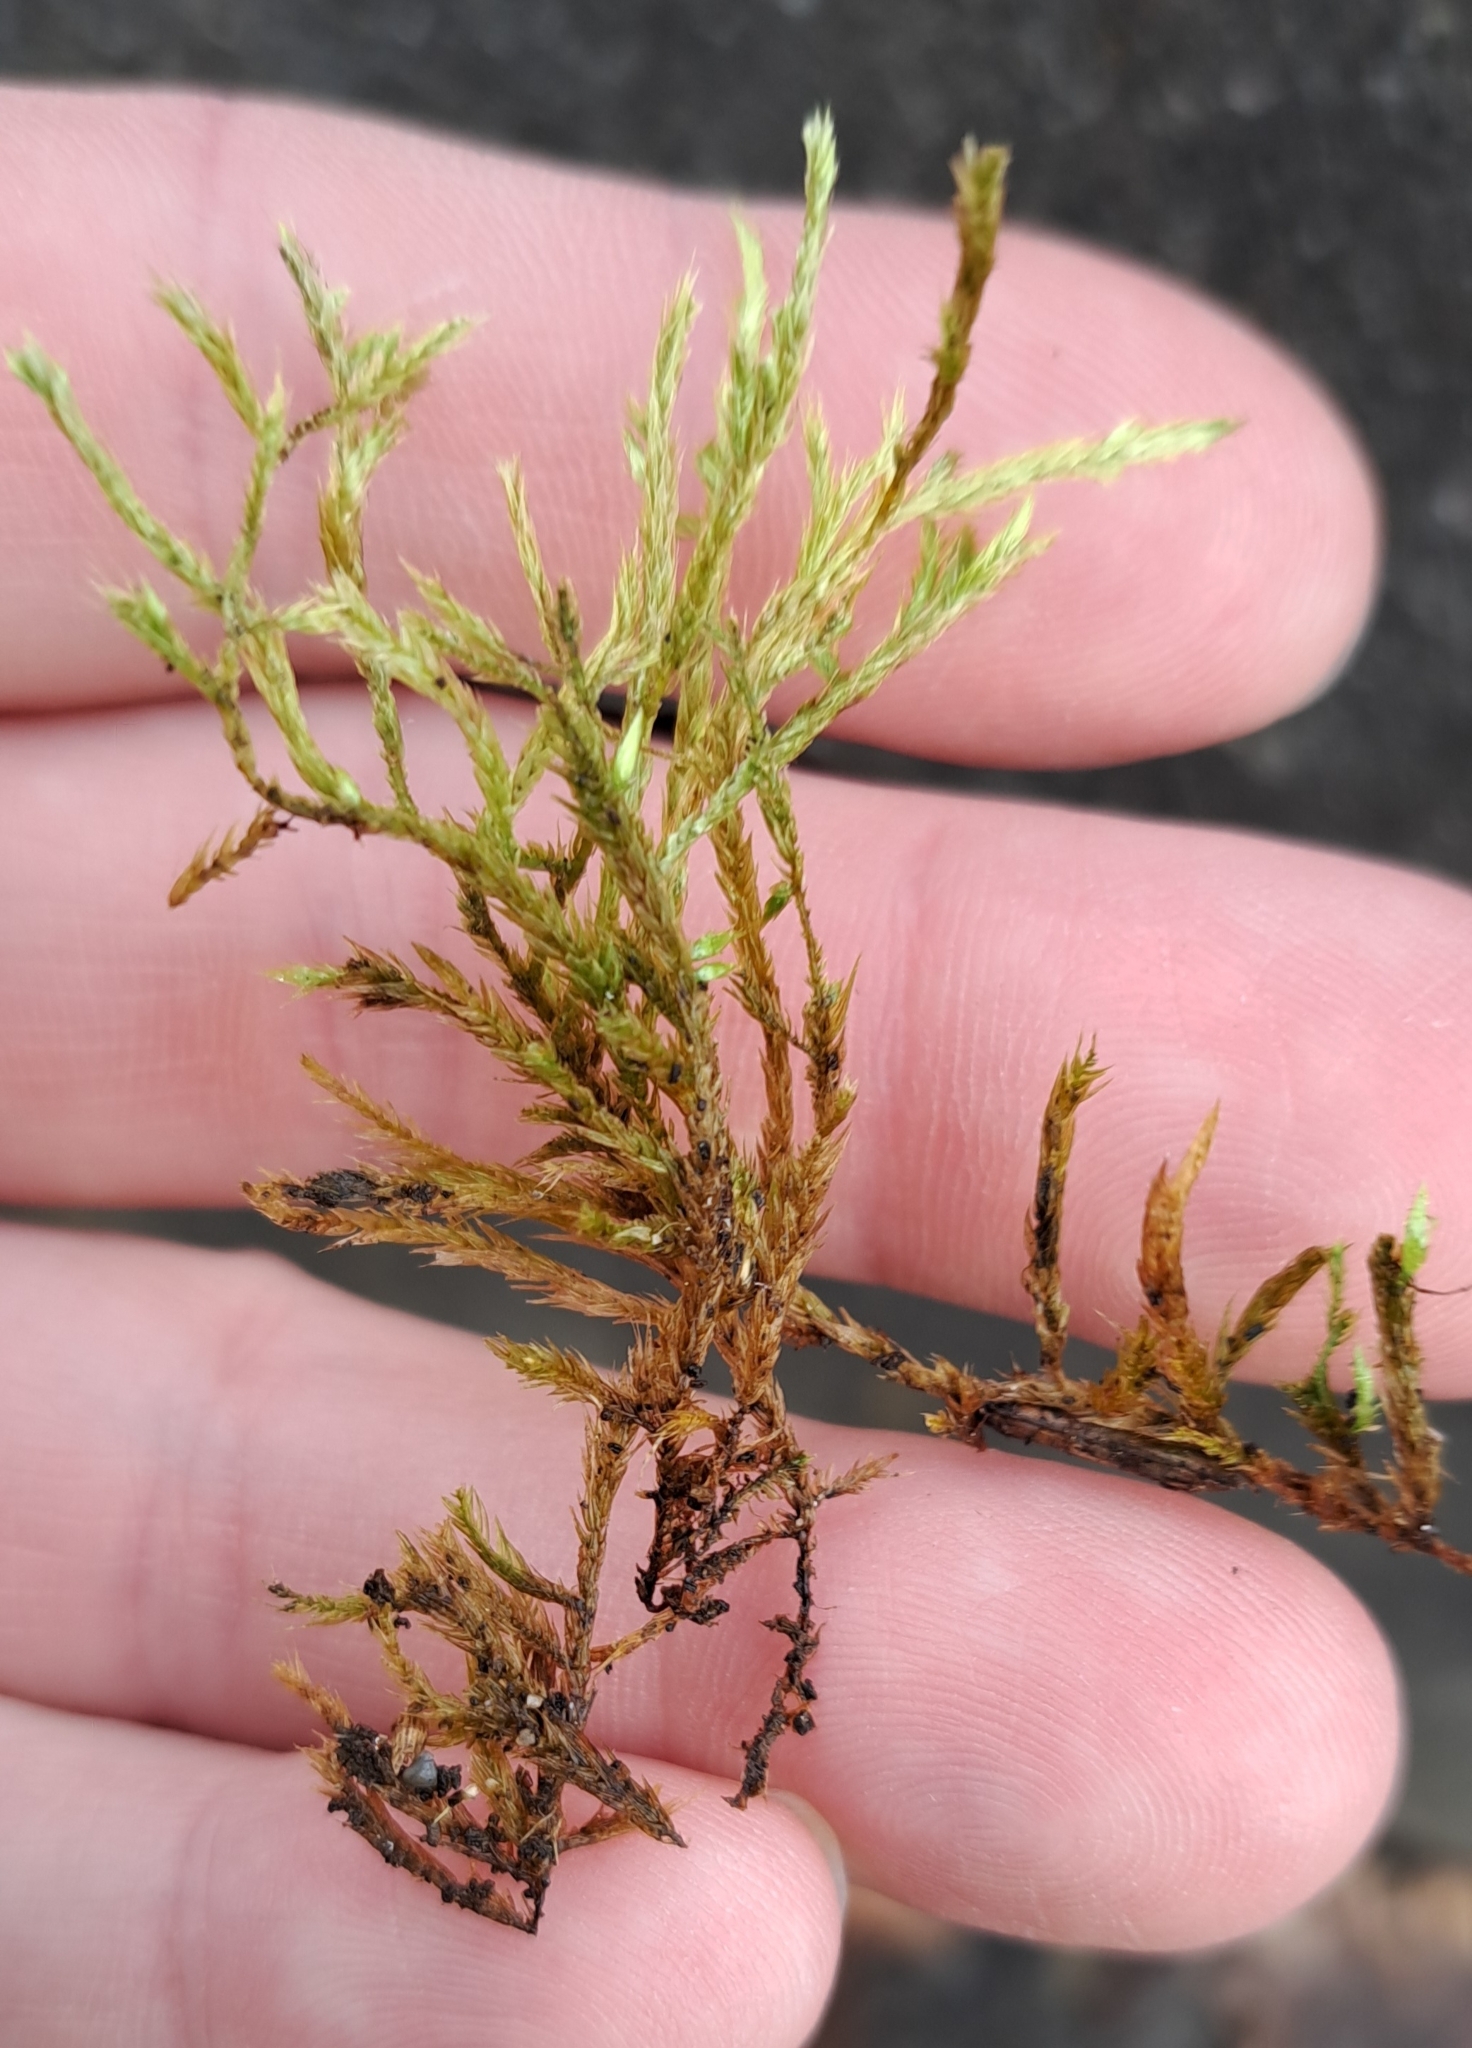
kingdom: Plantae
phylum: Bryophyta
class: Bryopsida
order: Hypnales
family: Brachytheciaceae
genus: Homalothecium
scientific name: Homalothecium lutescens
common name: Yellow feather-moss
